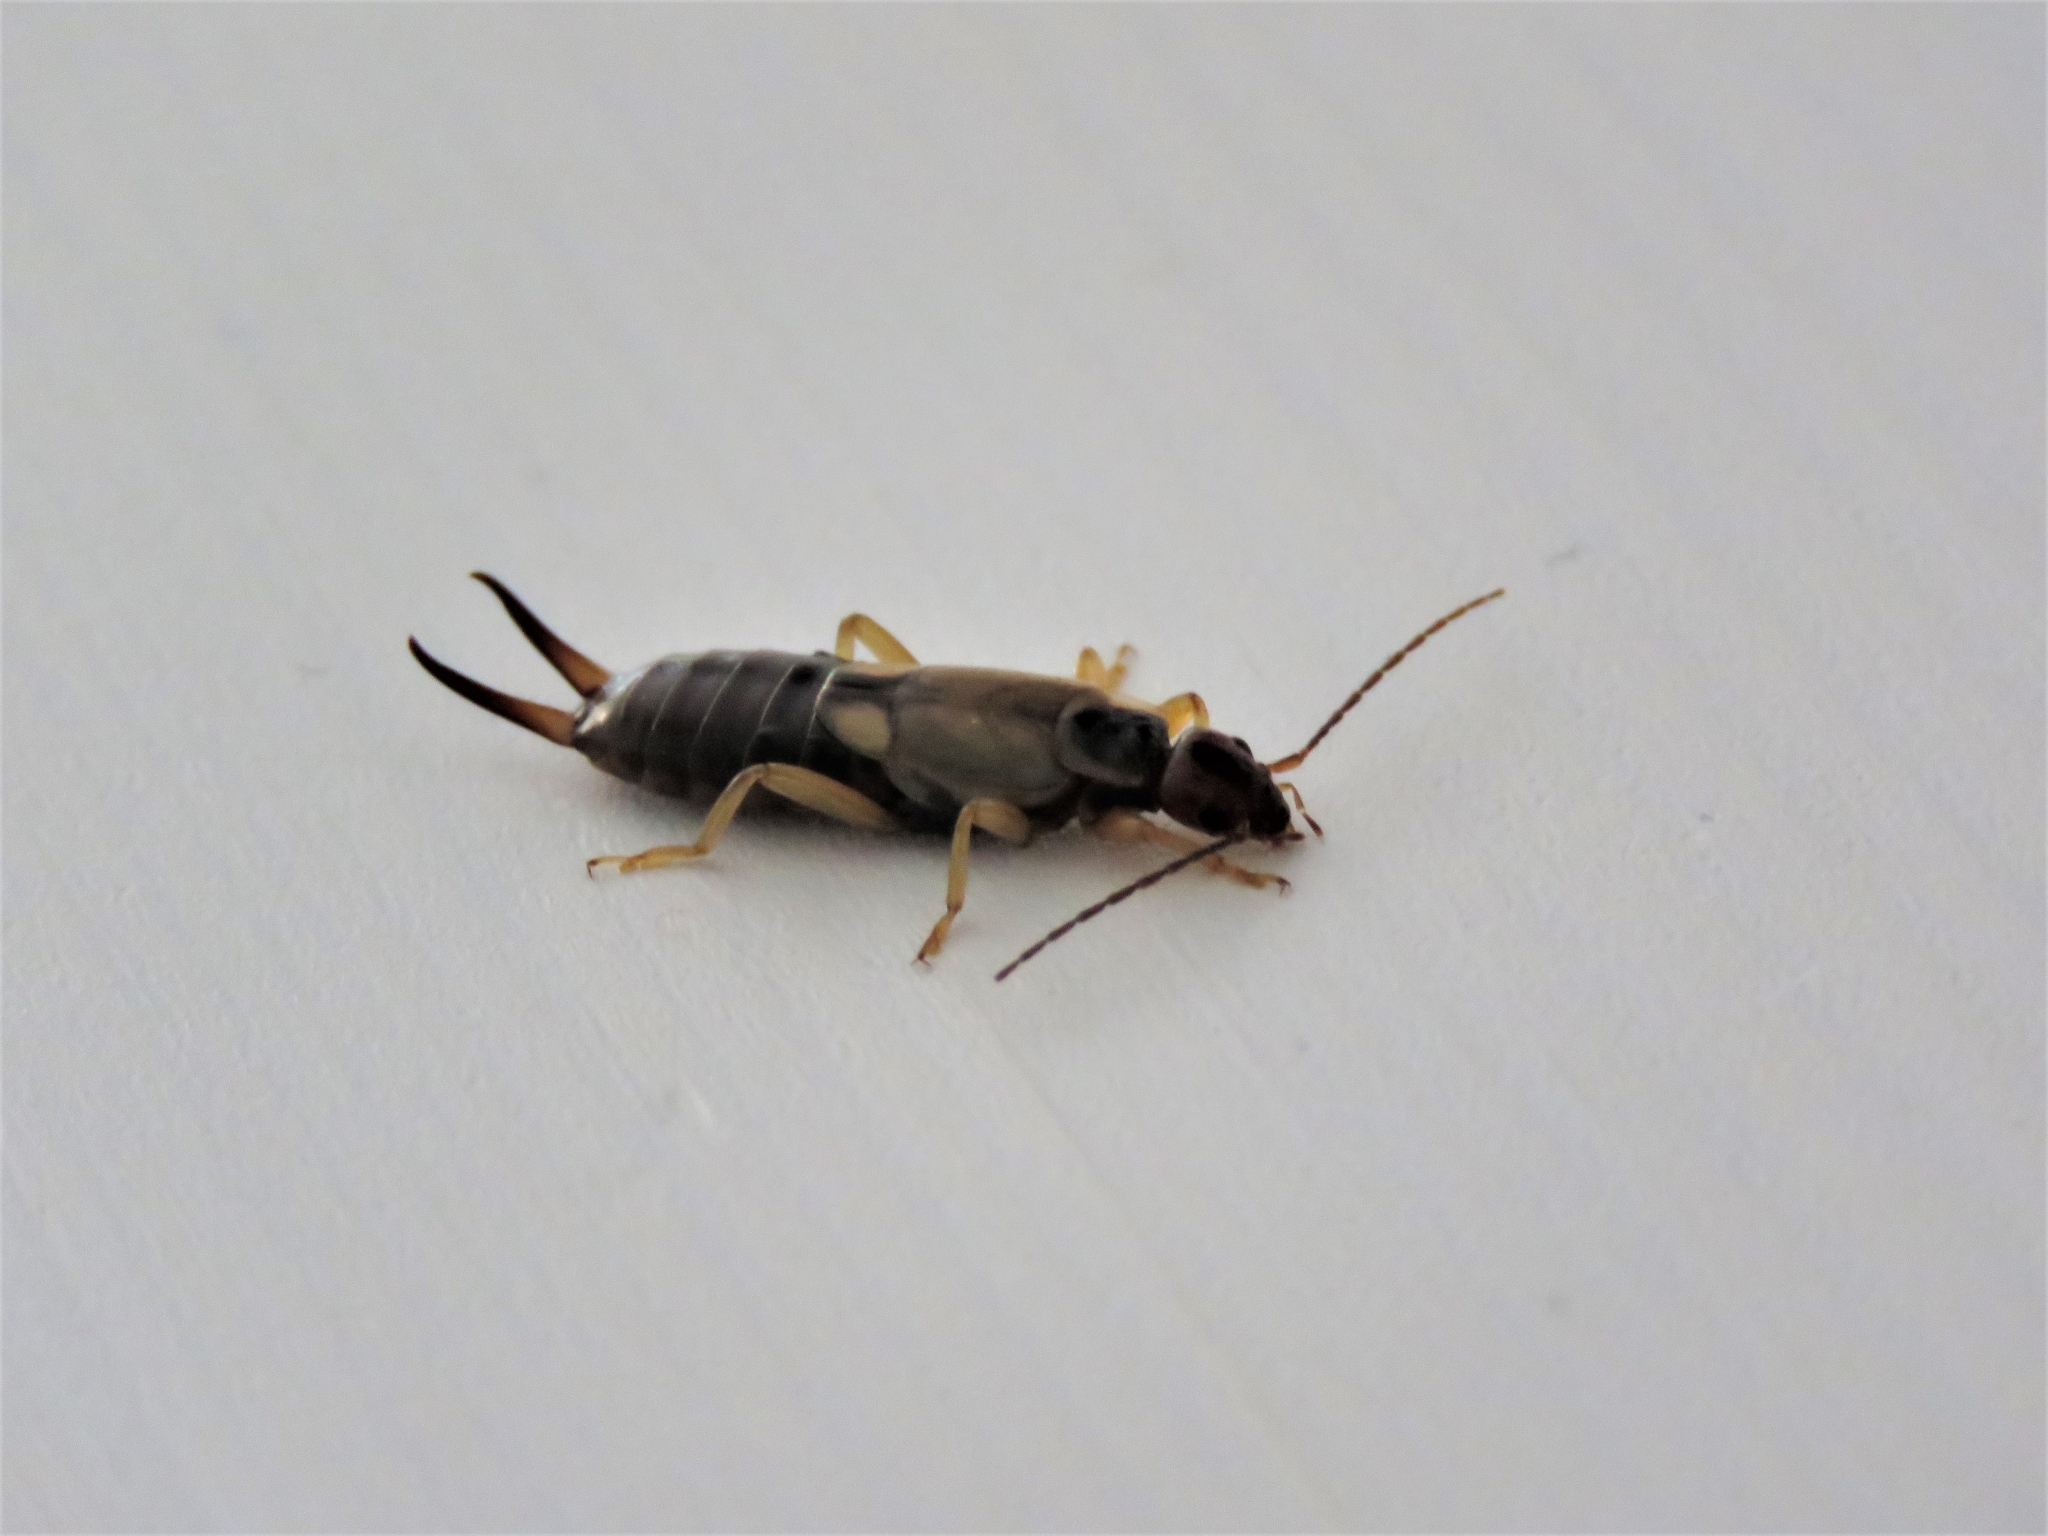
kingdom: Animalia
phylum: Arthropoda
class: Insecta
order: Dermaptera
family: Forficulidae
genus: Forficula
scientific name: Forficula
